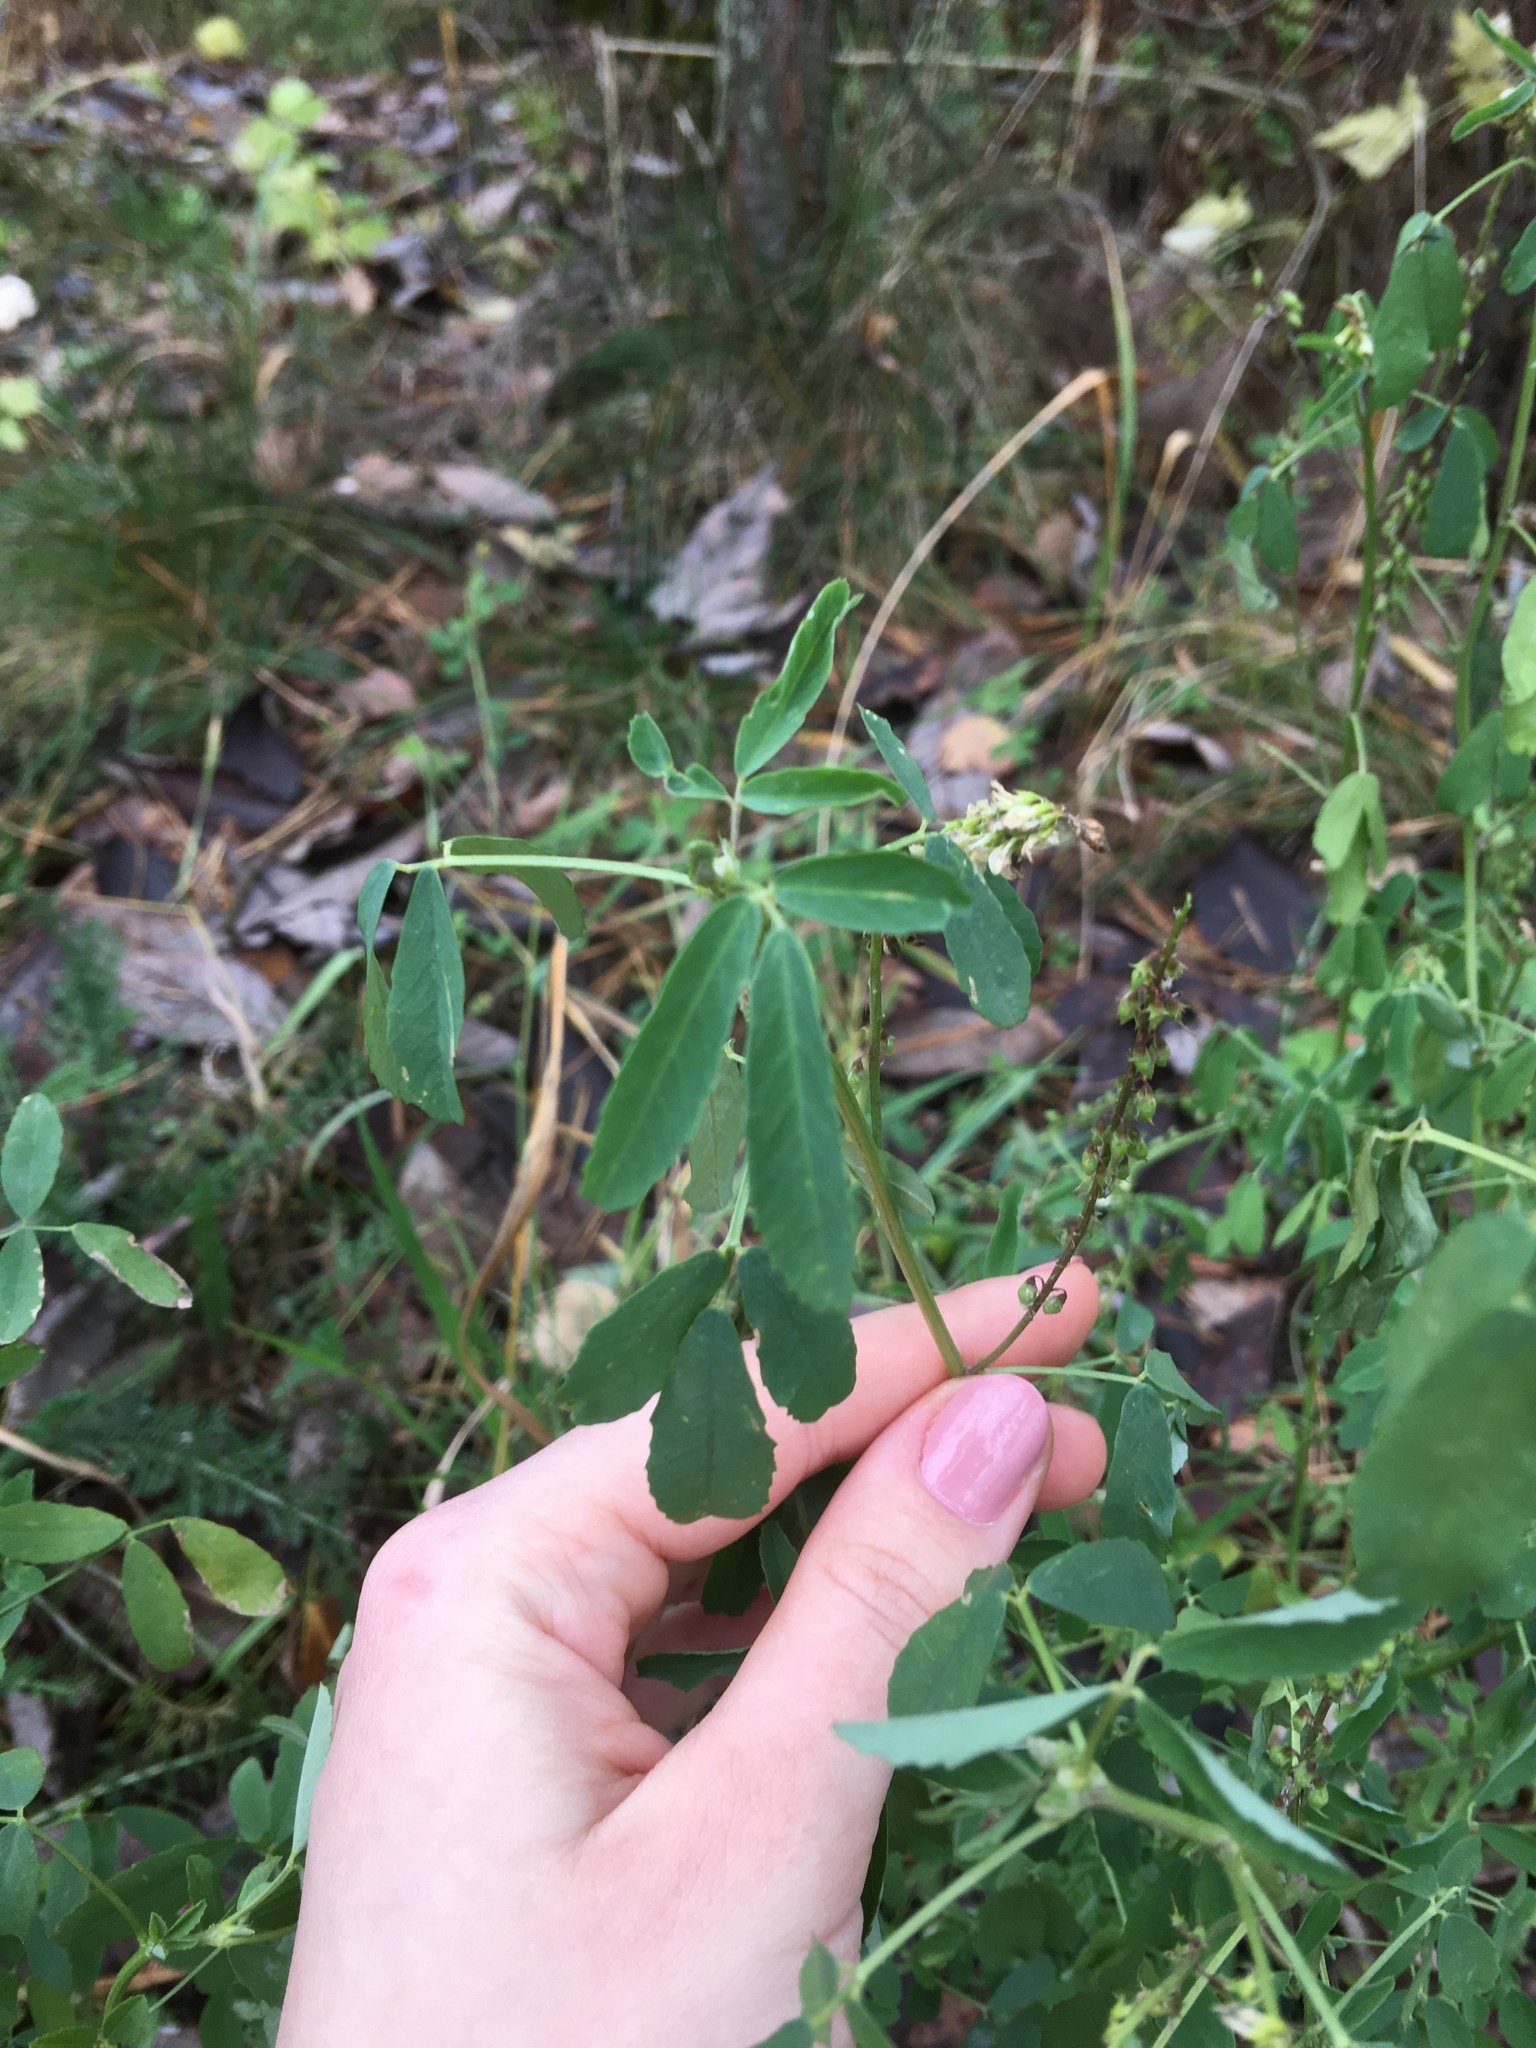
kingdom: Plantae
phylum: Tracheophyta
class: Magnoliopsida
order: Fabales
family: Fabaceae
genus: Melilotus
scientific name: Melilotus albus
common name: White melilot
